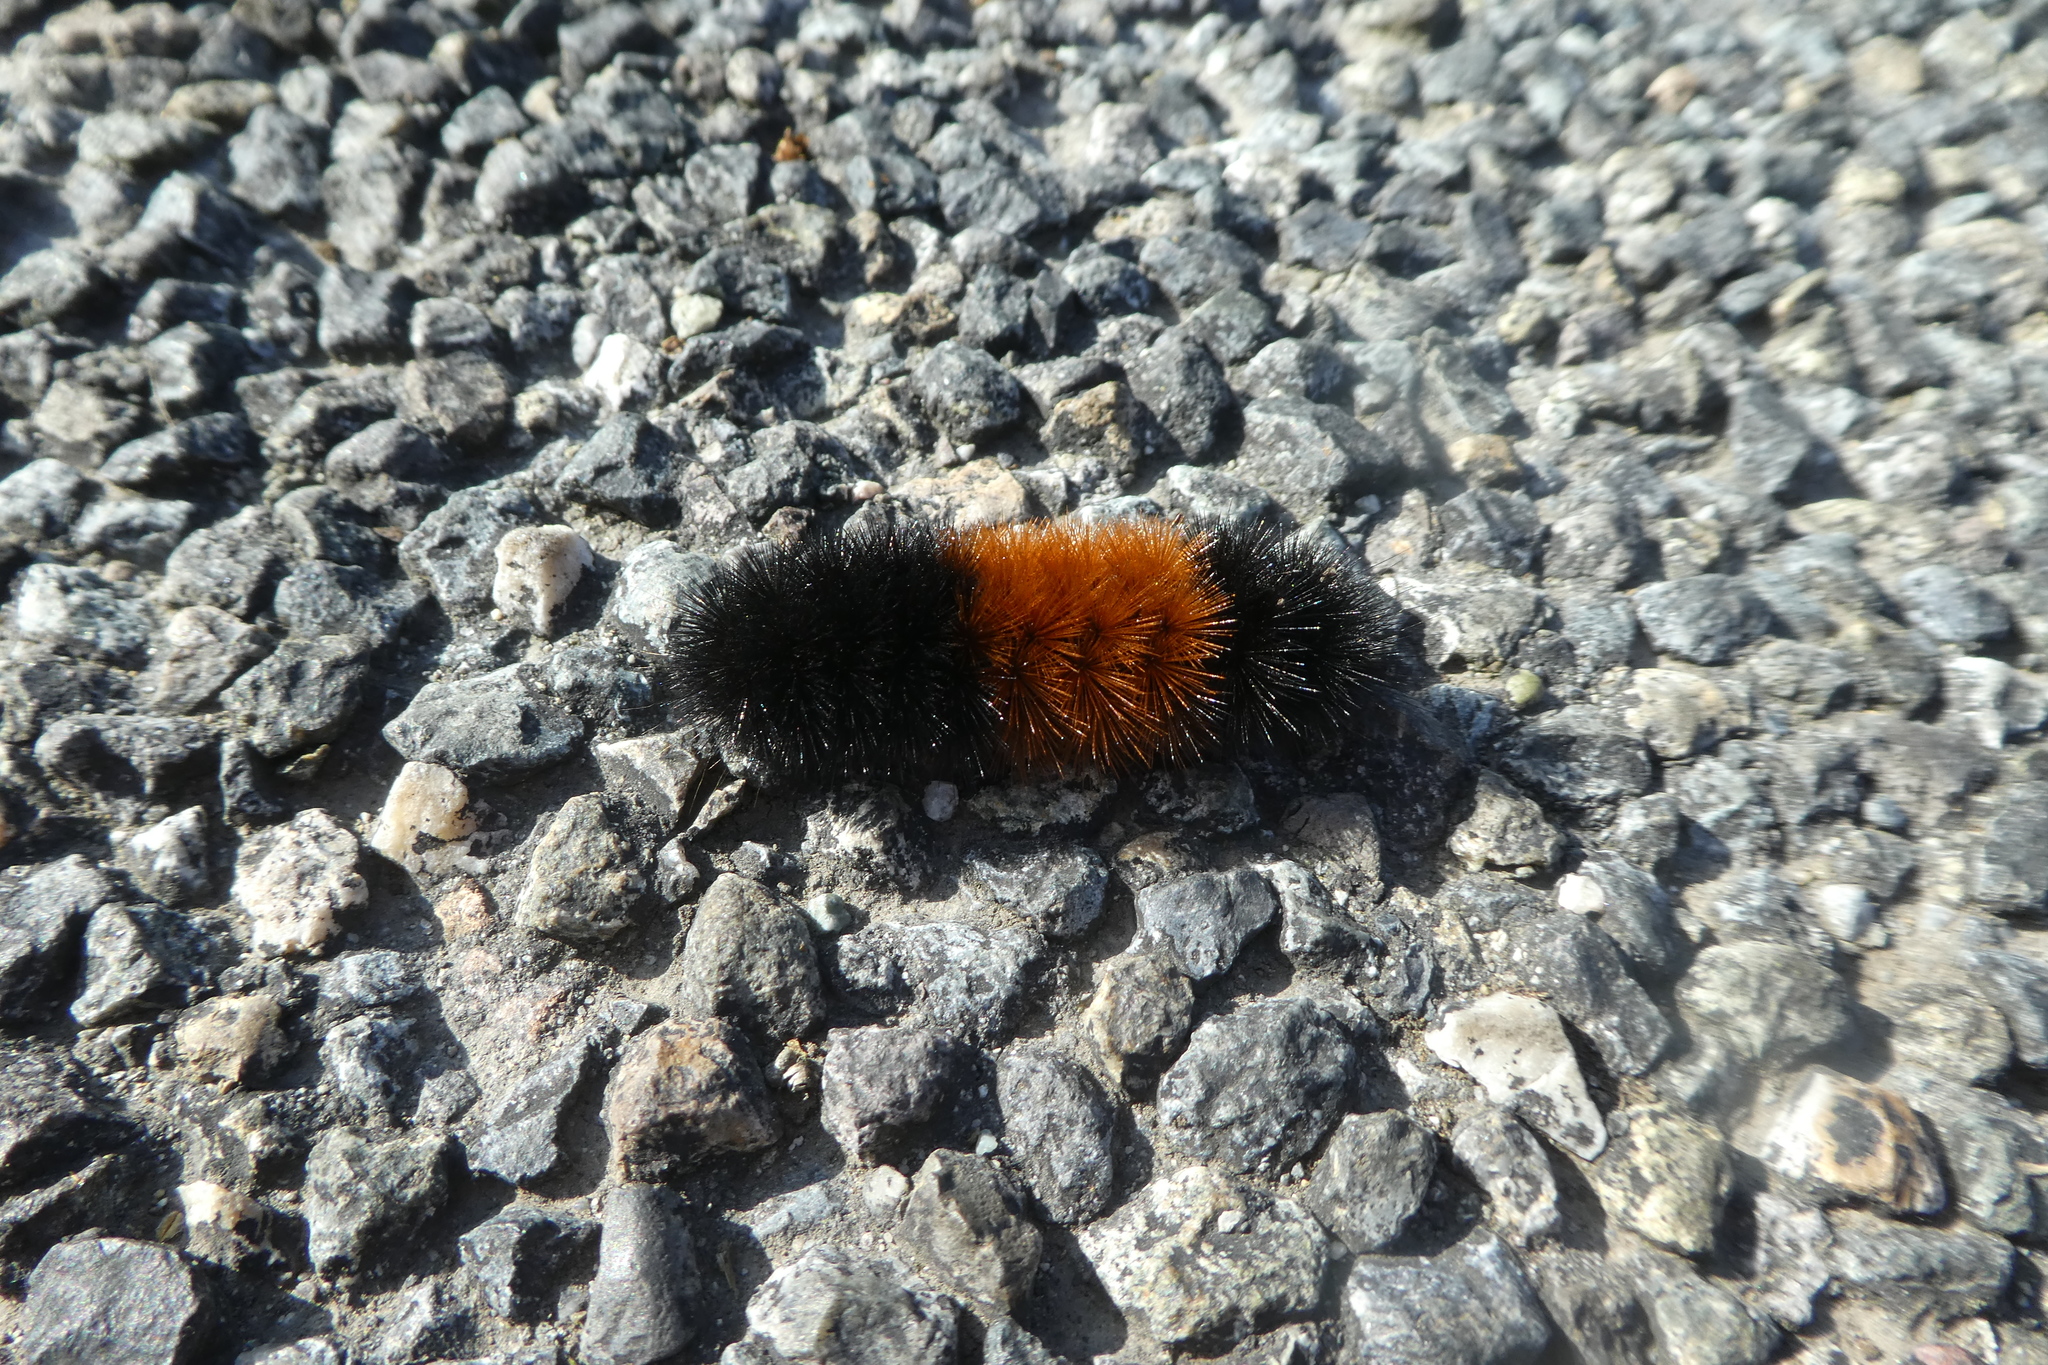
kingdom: Animalia
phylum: Arthropoda
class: Insecta
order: Lepidoptera
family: Erebidae
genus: Pyrrharctia
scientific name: Pyrrharctia isabella
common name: Isabella tiger moth
